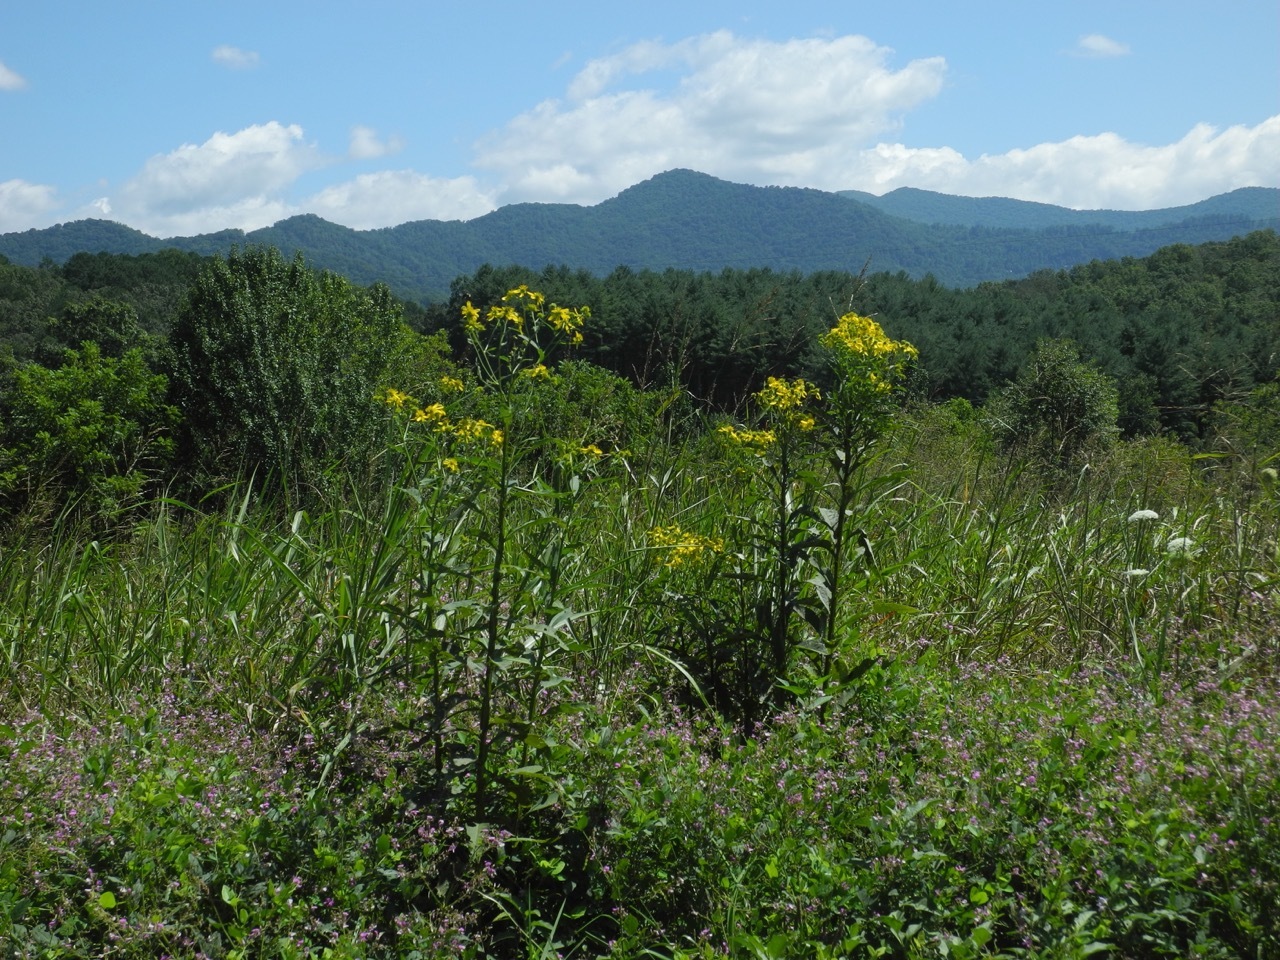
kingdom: Plantae
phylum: Tracheophyta
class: Magnoliopsida
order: Asterales
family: Asteraceae
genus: Verbesina
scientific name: Verbesina alternifolia
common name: Wingstem
